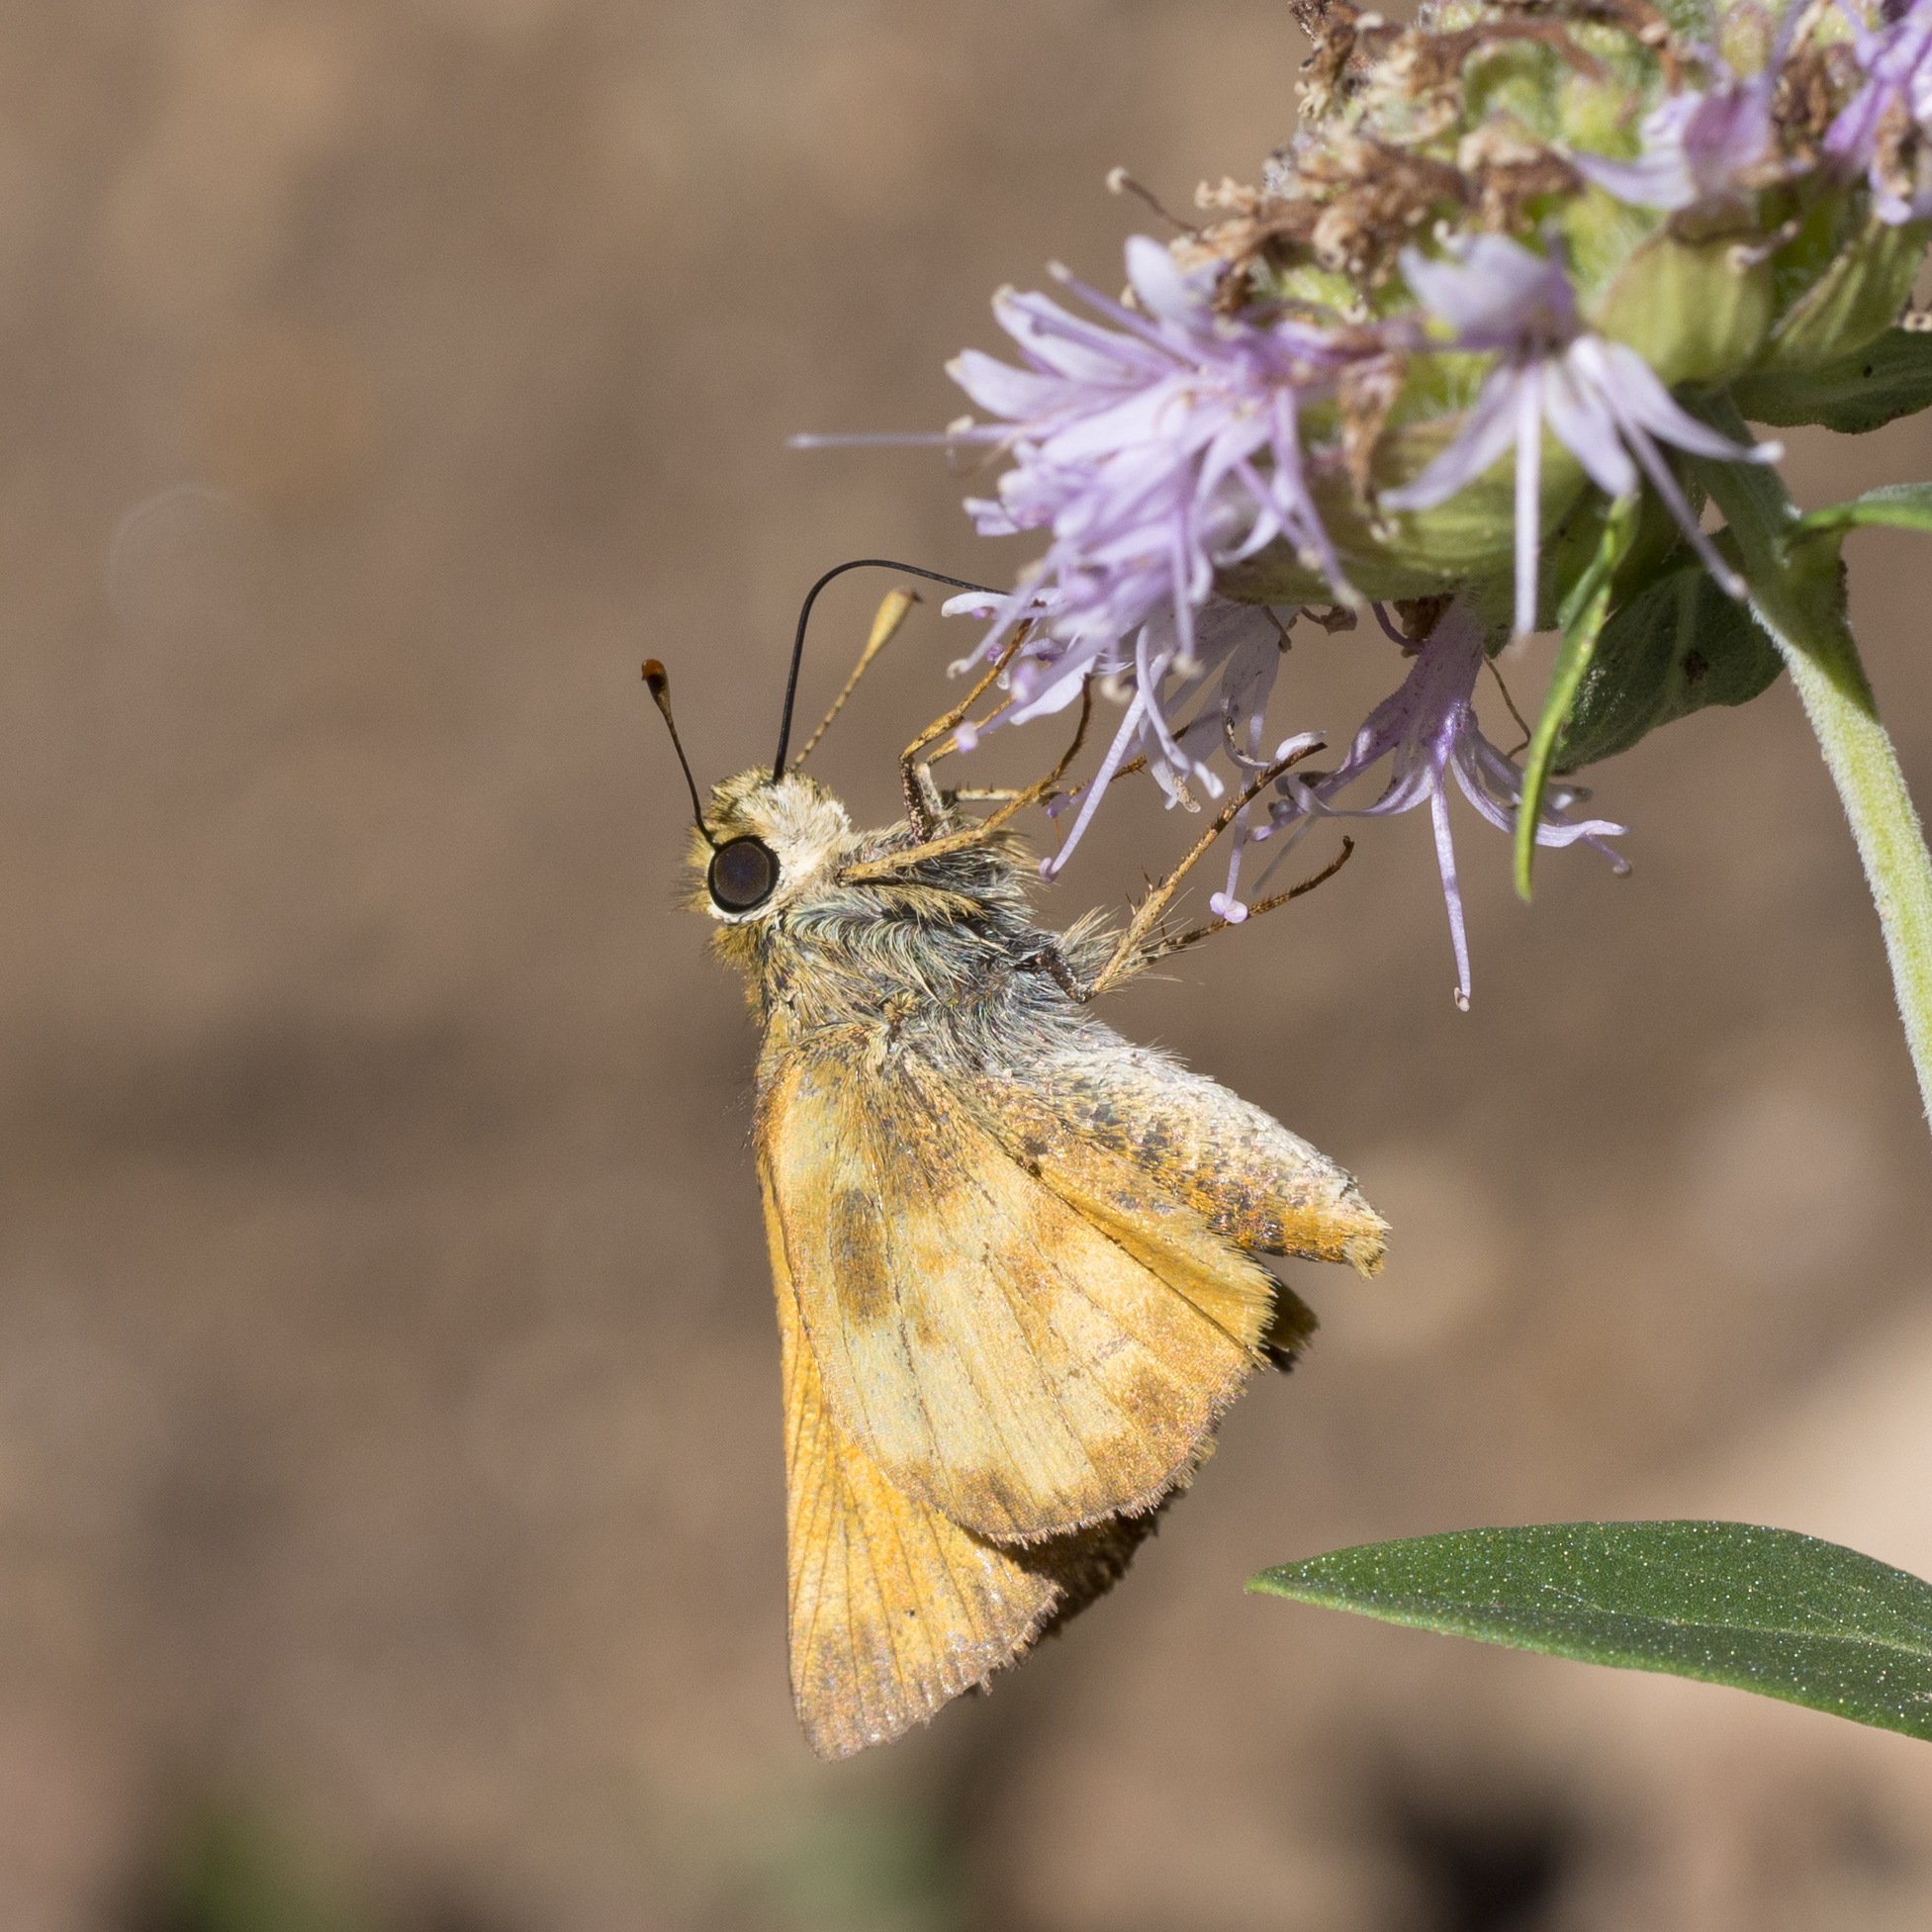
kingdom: Animalia
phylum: Arthropoda
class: Insecta
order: Lepidoptera
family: Hesperiidae
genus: Lon
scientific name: Lon taxiles
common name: Taxiles skipper
